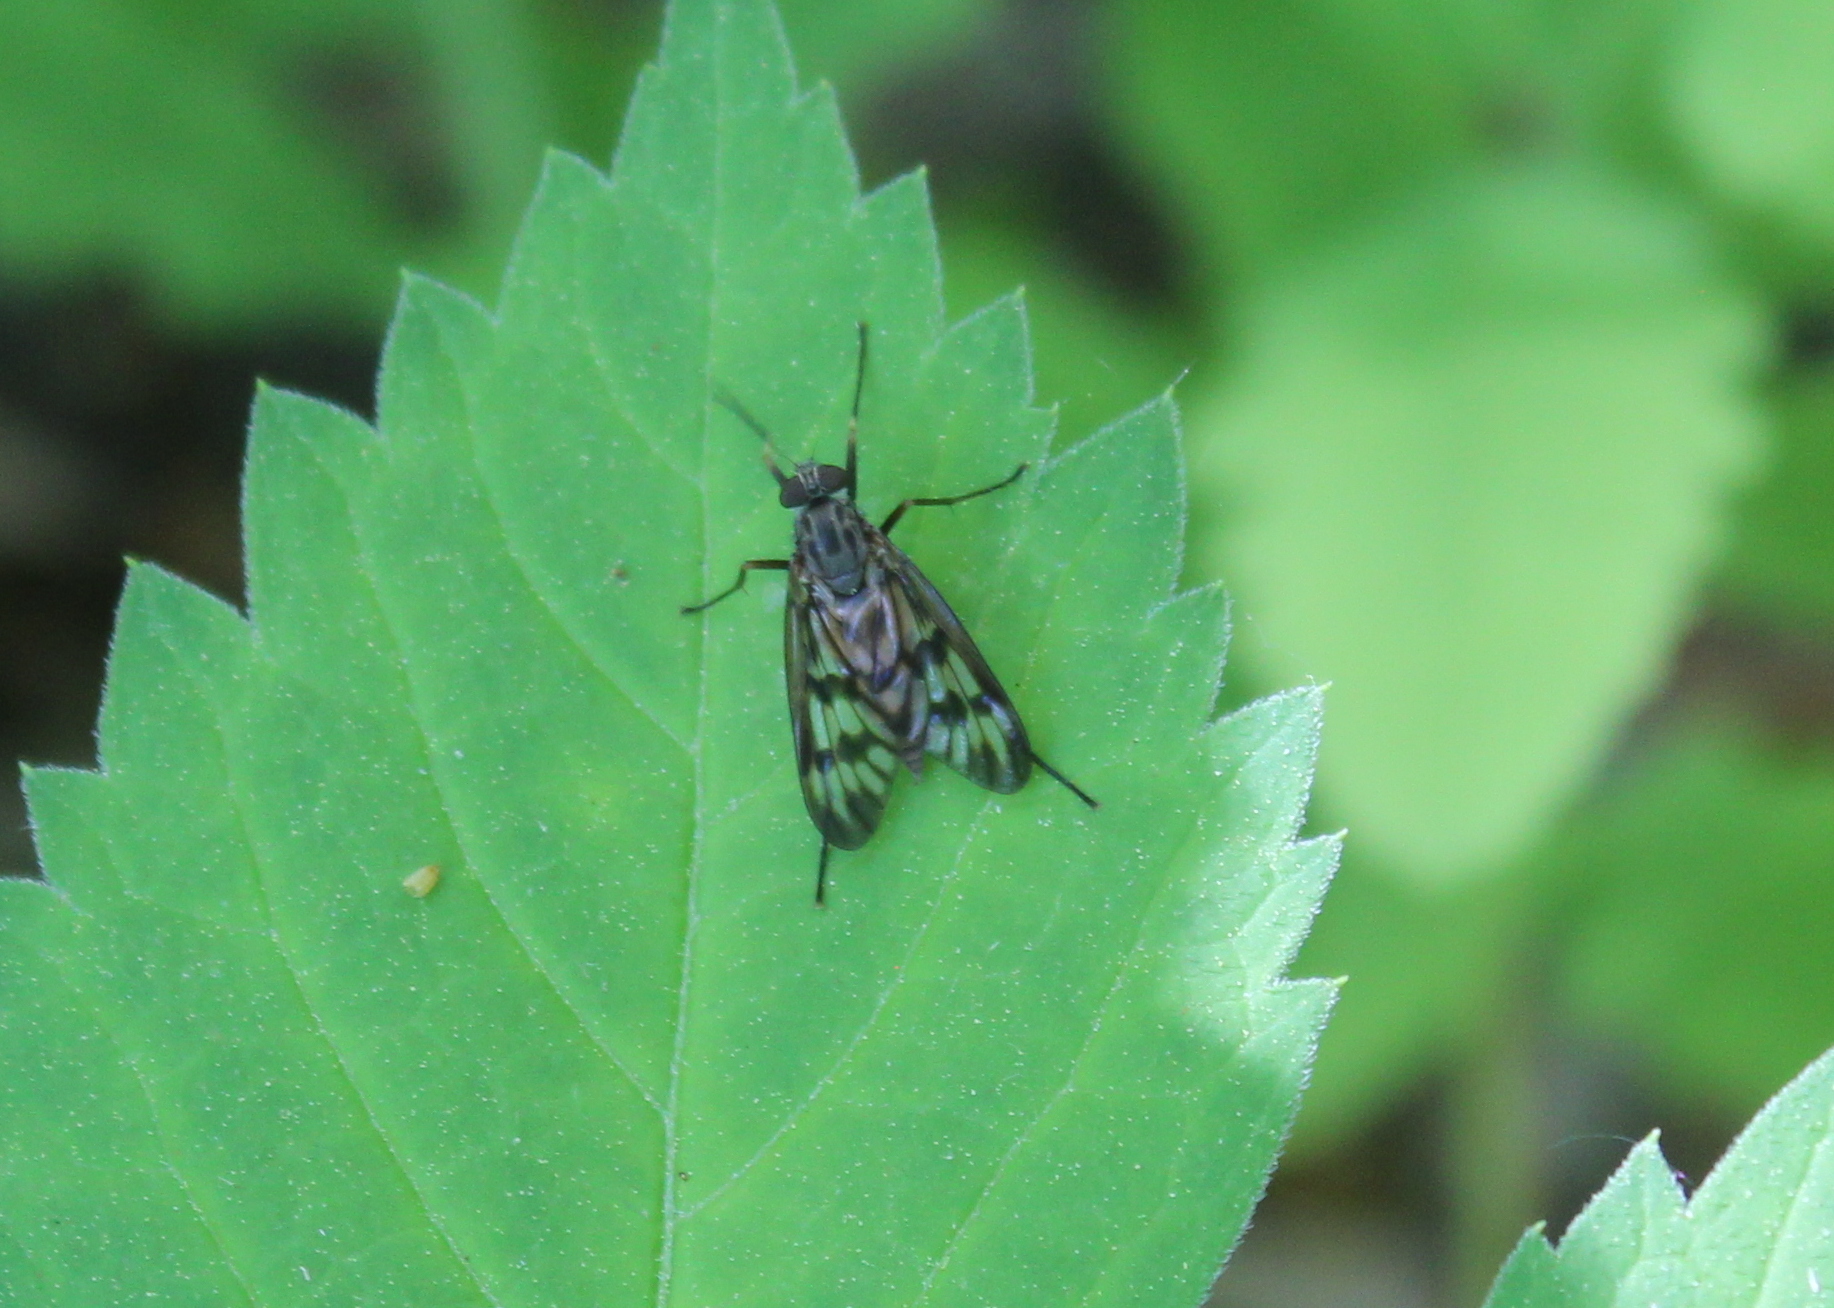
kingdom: Animalia
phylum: Arthropoda
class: Insecta
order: Diptera
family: Rhagionidae
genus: Rhagio
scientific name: Rhagio mystaceus
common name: Common snipe fly
